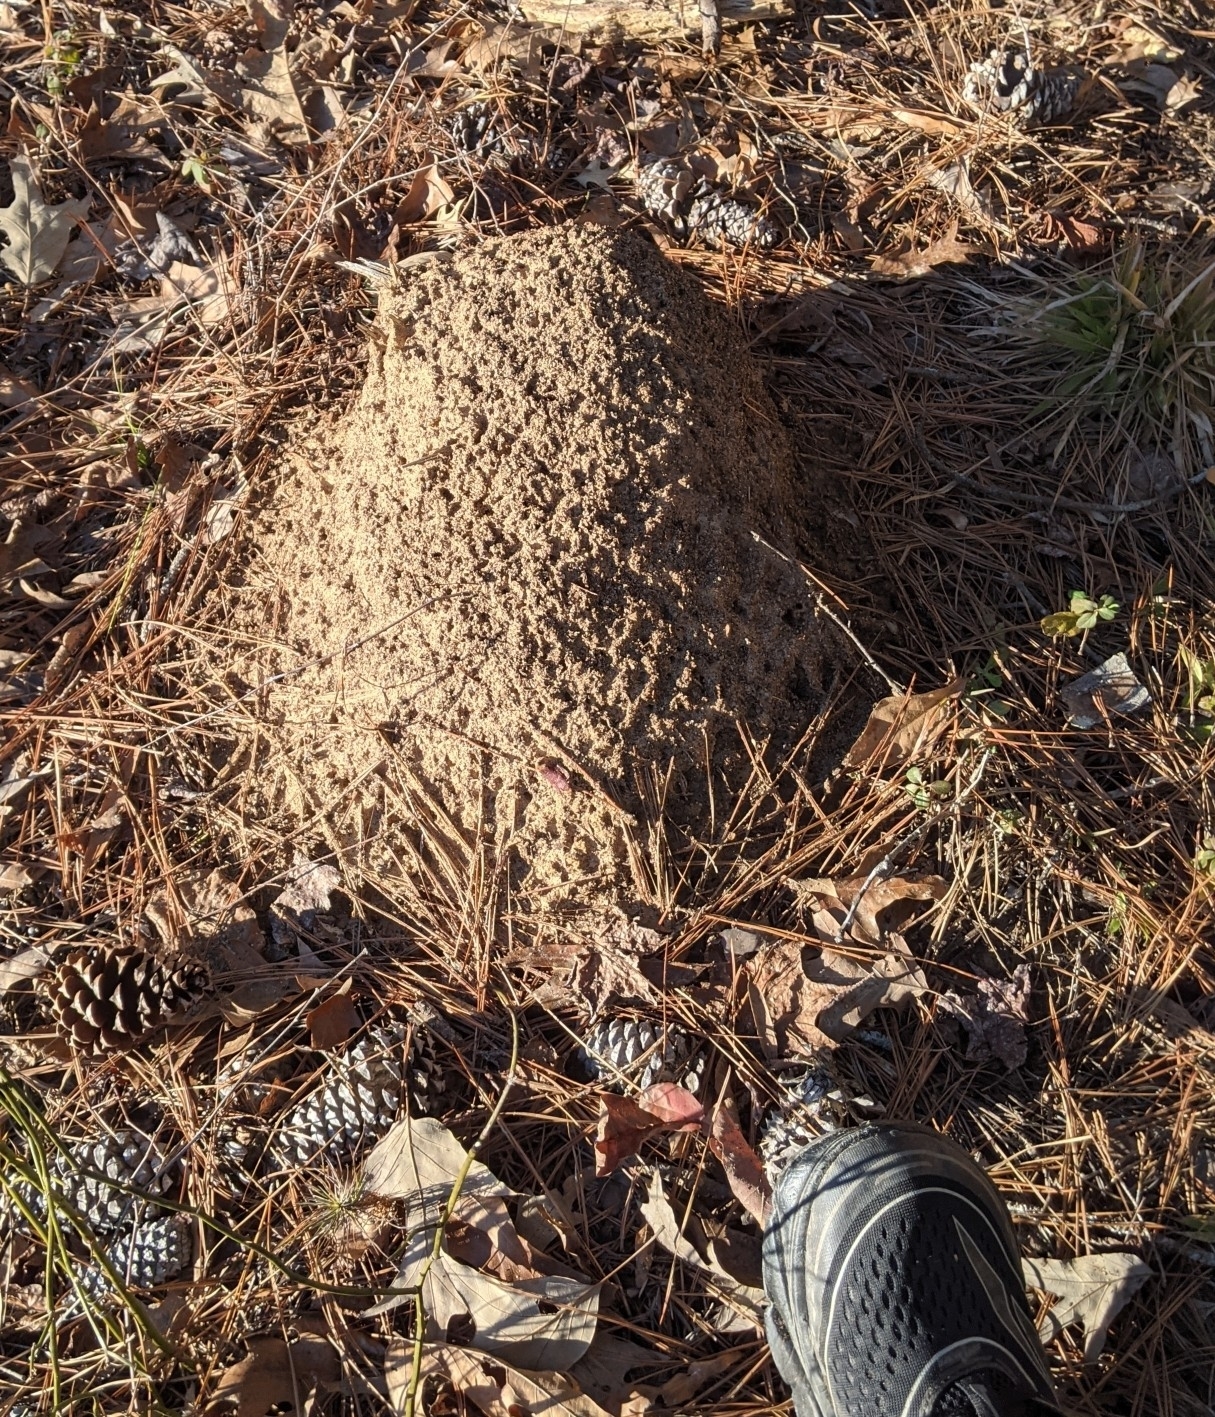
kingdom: Animalia
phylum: Arthropoda
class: Insecta
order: Hymenoptera
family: Formicidae
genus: Solenopsis
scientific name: Solenopsis invicta
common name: Red imported fire ant
